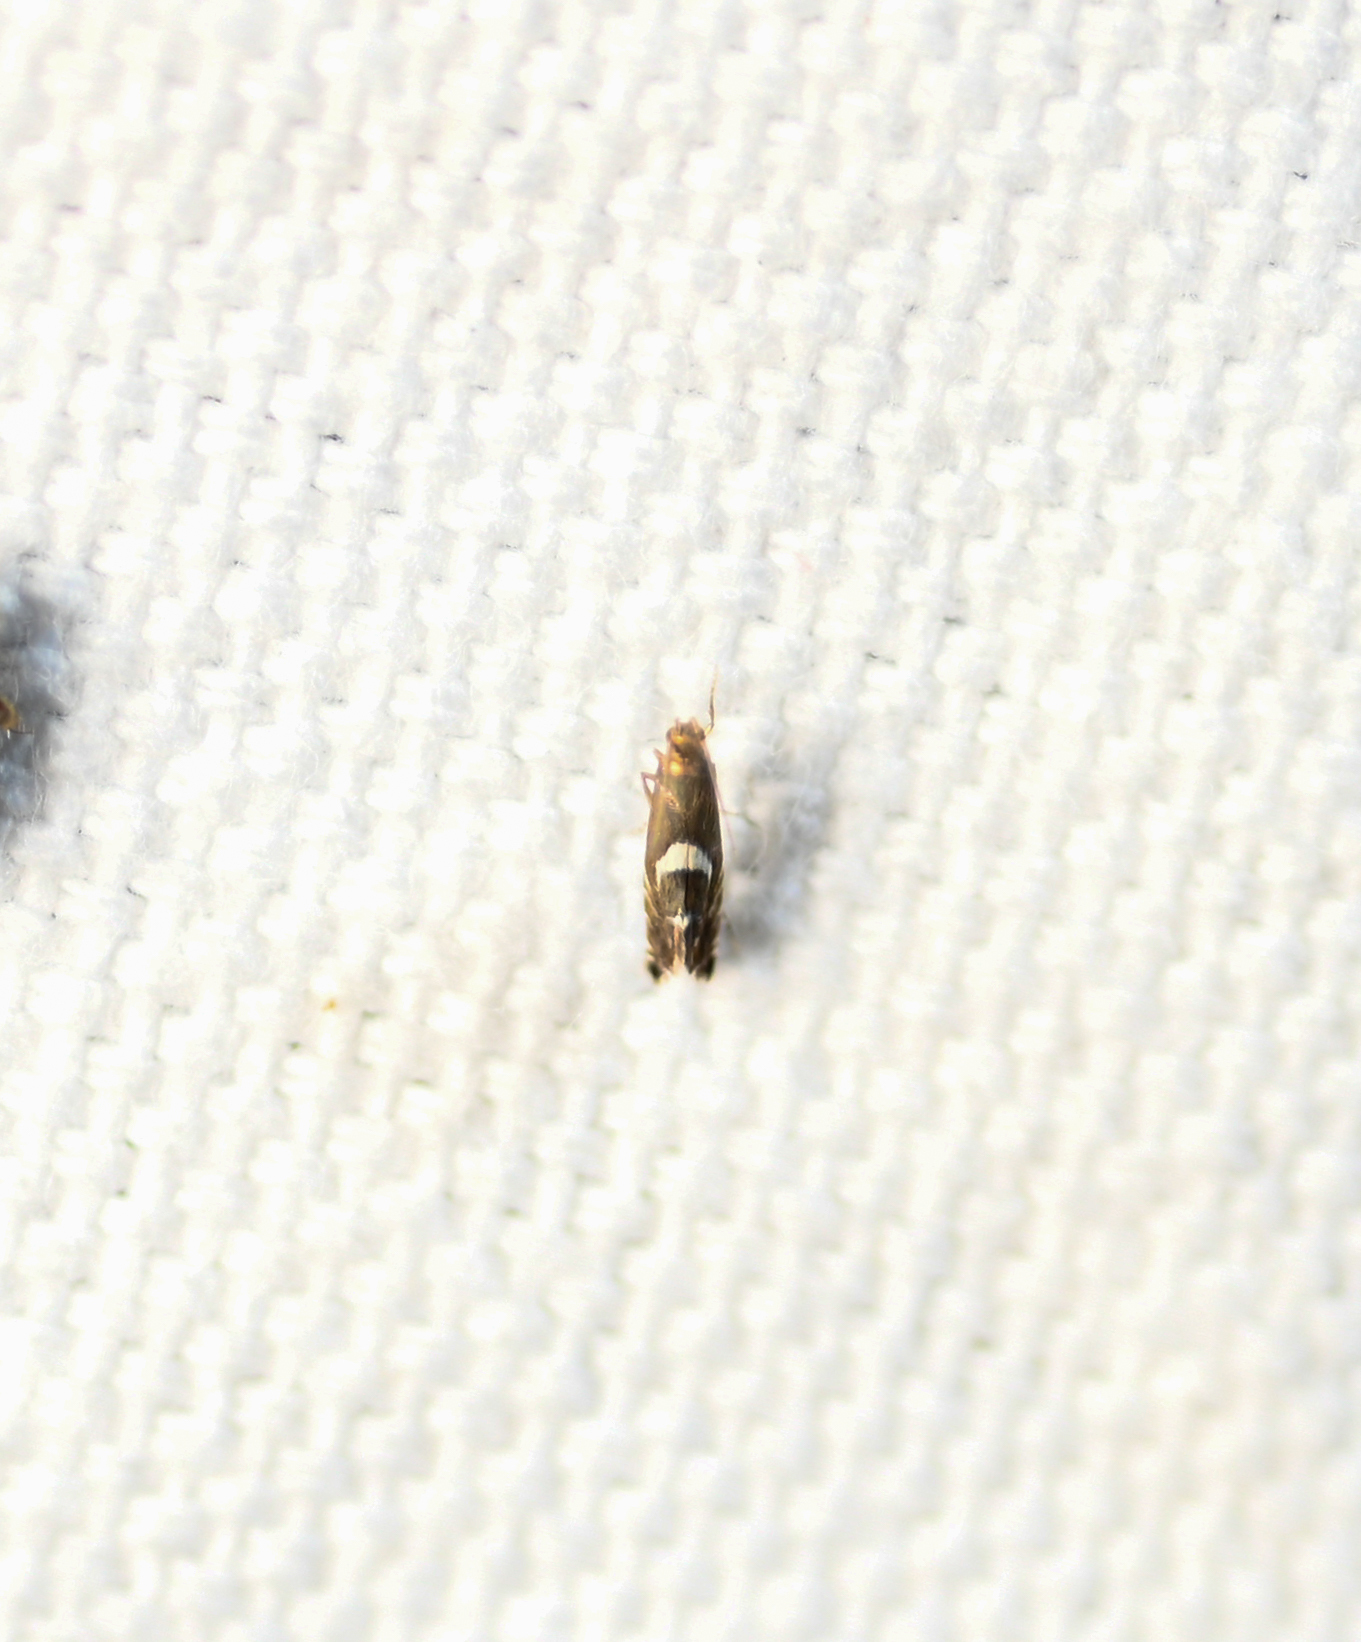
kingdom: Animalia
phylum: Arthropoda
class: Insecta
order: Lepidoptera
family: Glyphipterigidae
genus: Glyphipterix
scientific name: Glyphipterix Diploschizia impigritella
